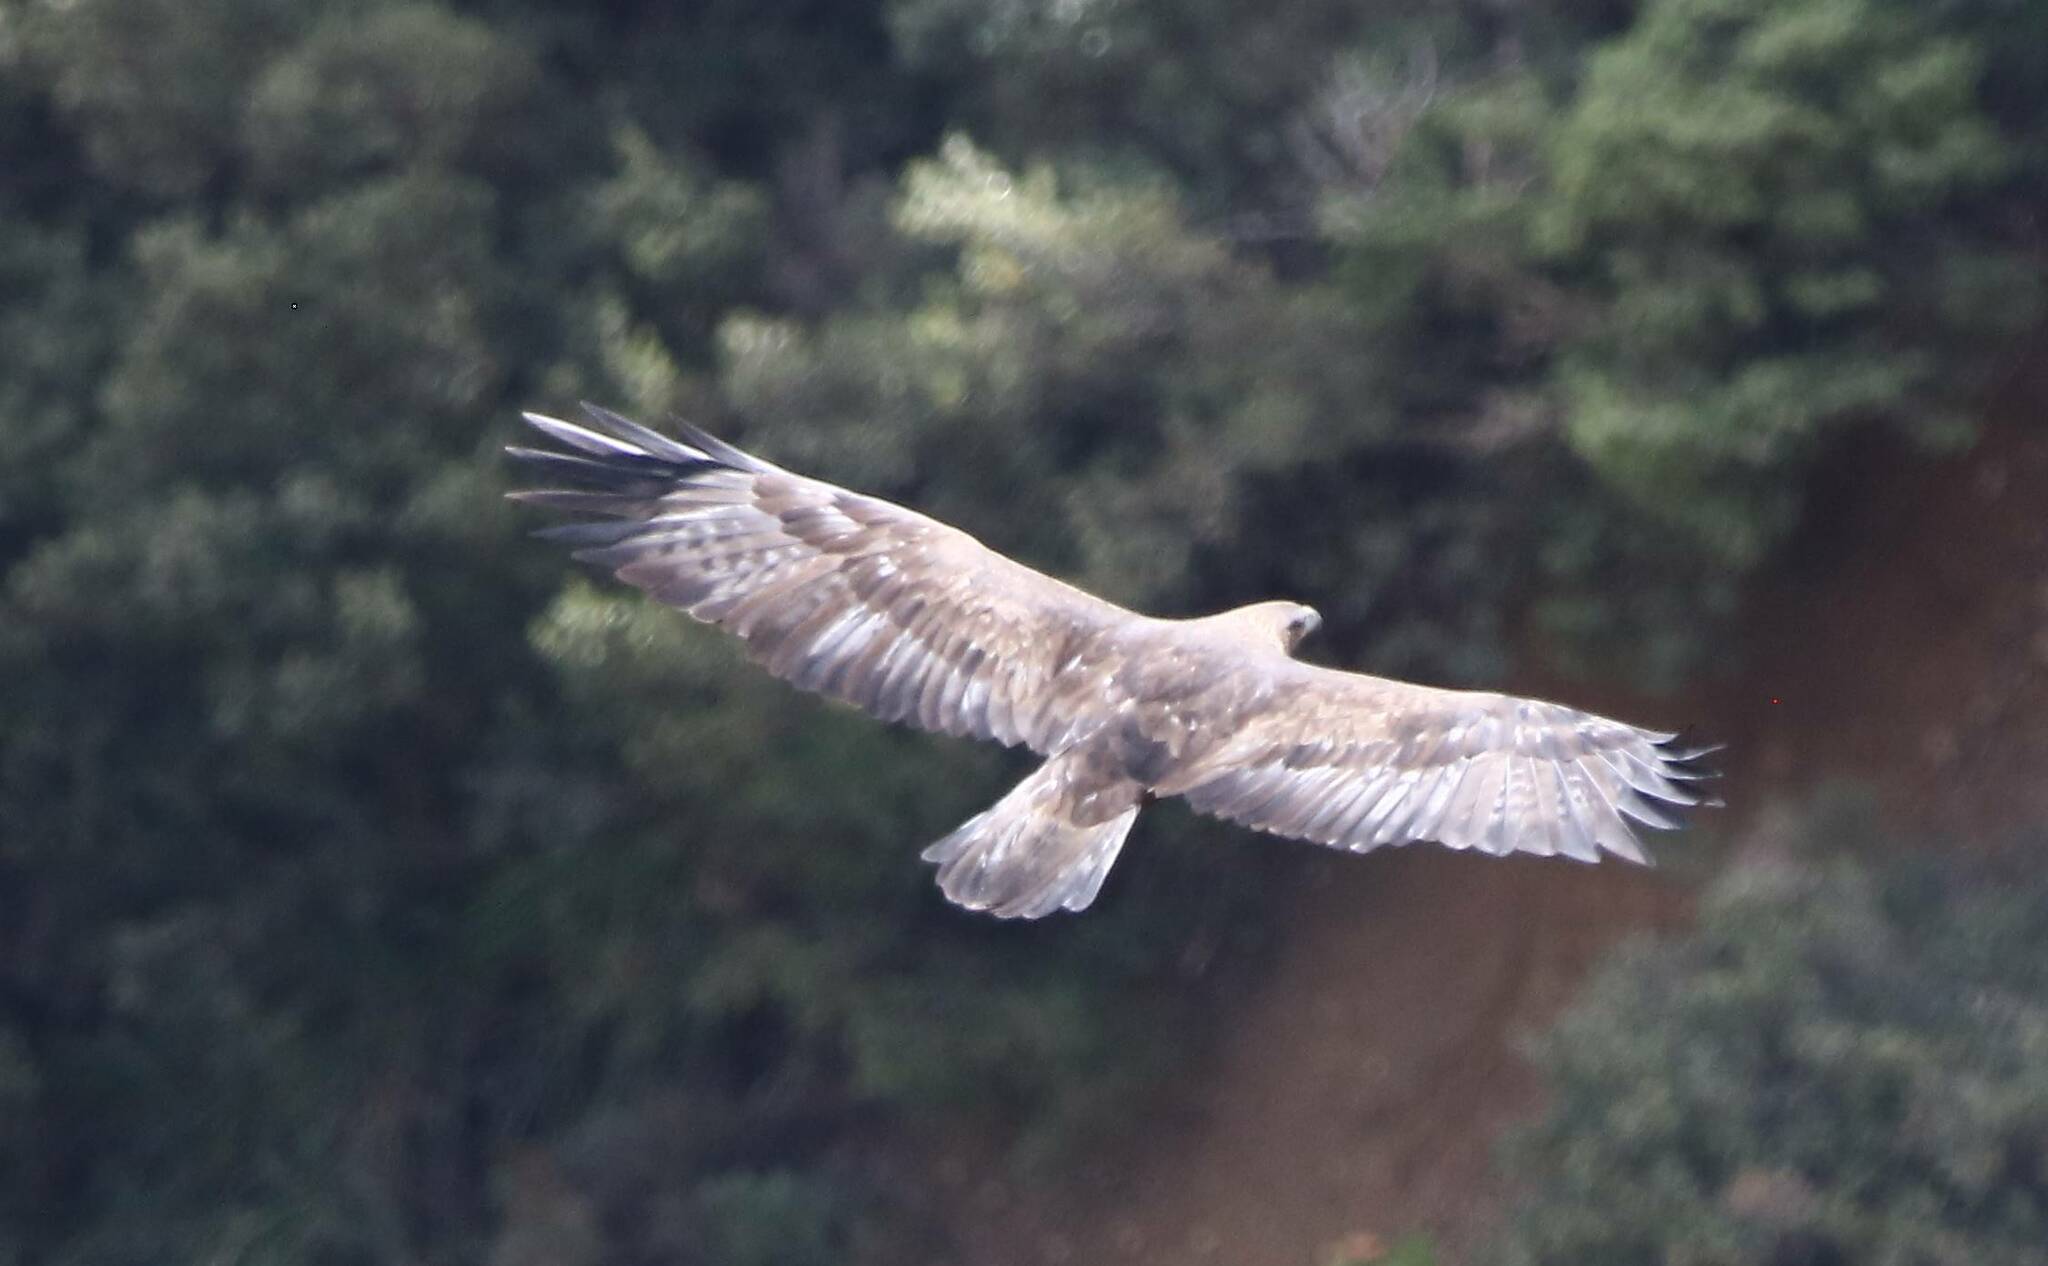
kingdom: Animalia
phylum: Chordata
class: Aves
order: Accipitriformes
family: Accipitridae
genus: Aquila
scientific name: Aquila chrysaetos
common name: Golden eagle
